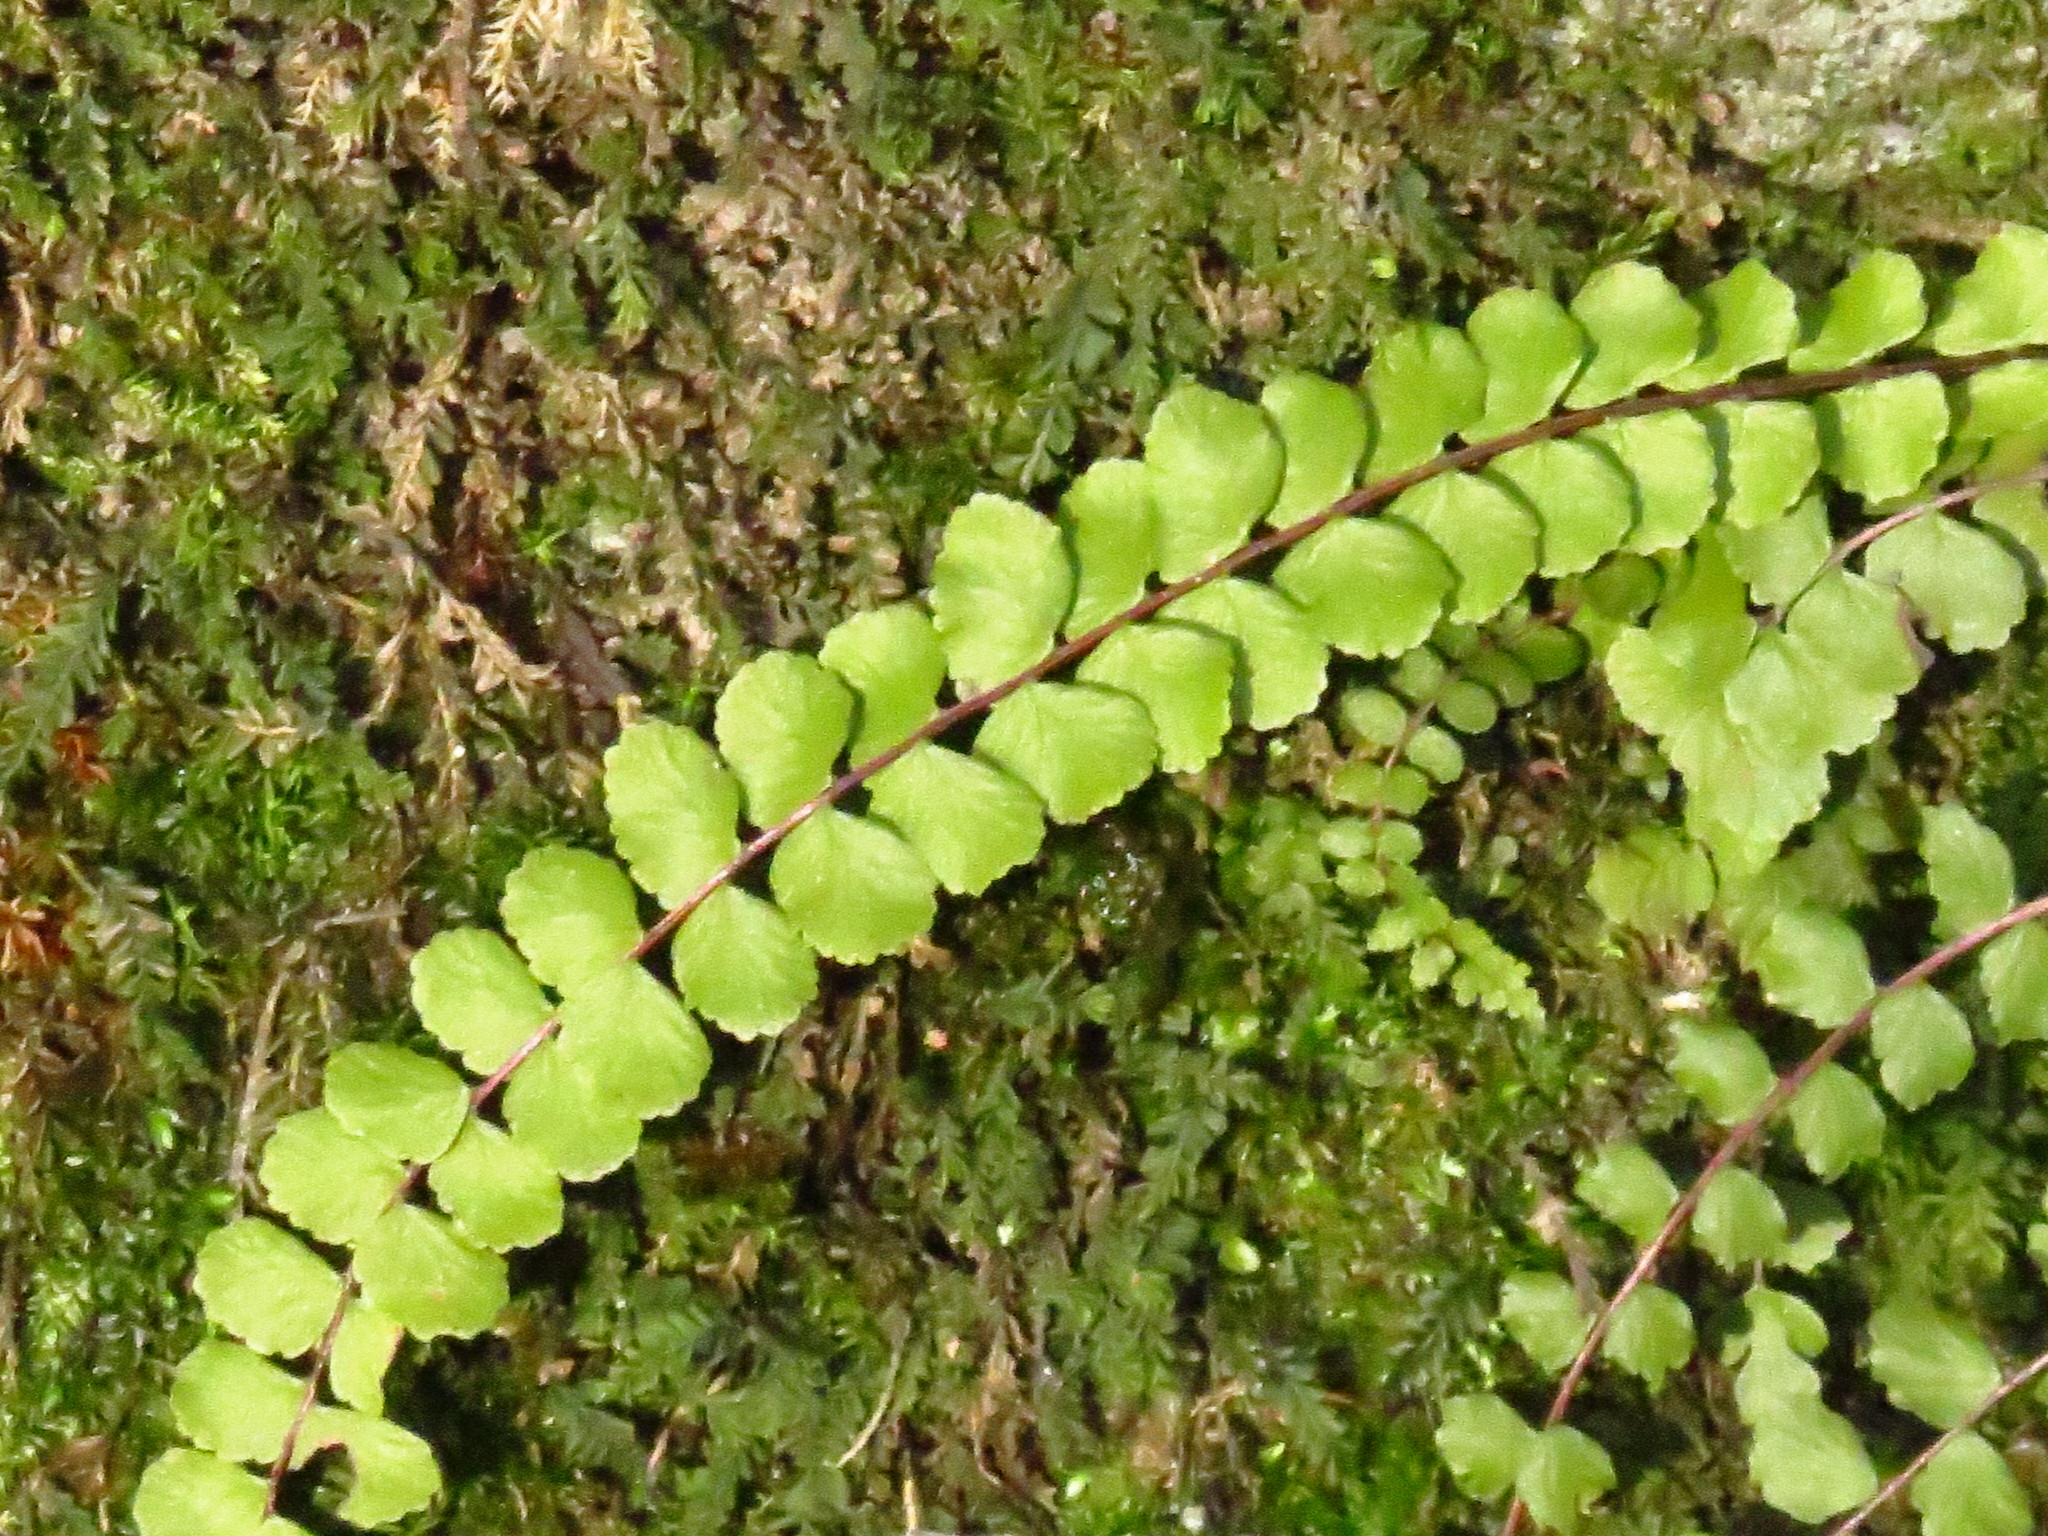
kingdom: Plantae
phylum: Tracheophyta
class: Polypodiopsida
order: Polypodiales
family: Aspleniaceae
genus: Asplenium
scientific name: Asplenium trichomanes
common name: Maidenhair spleenwort
